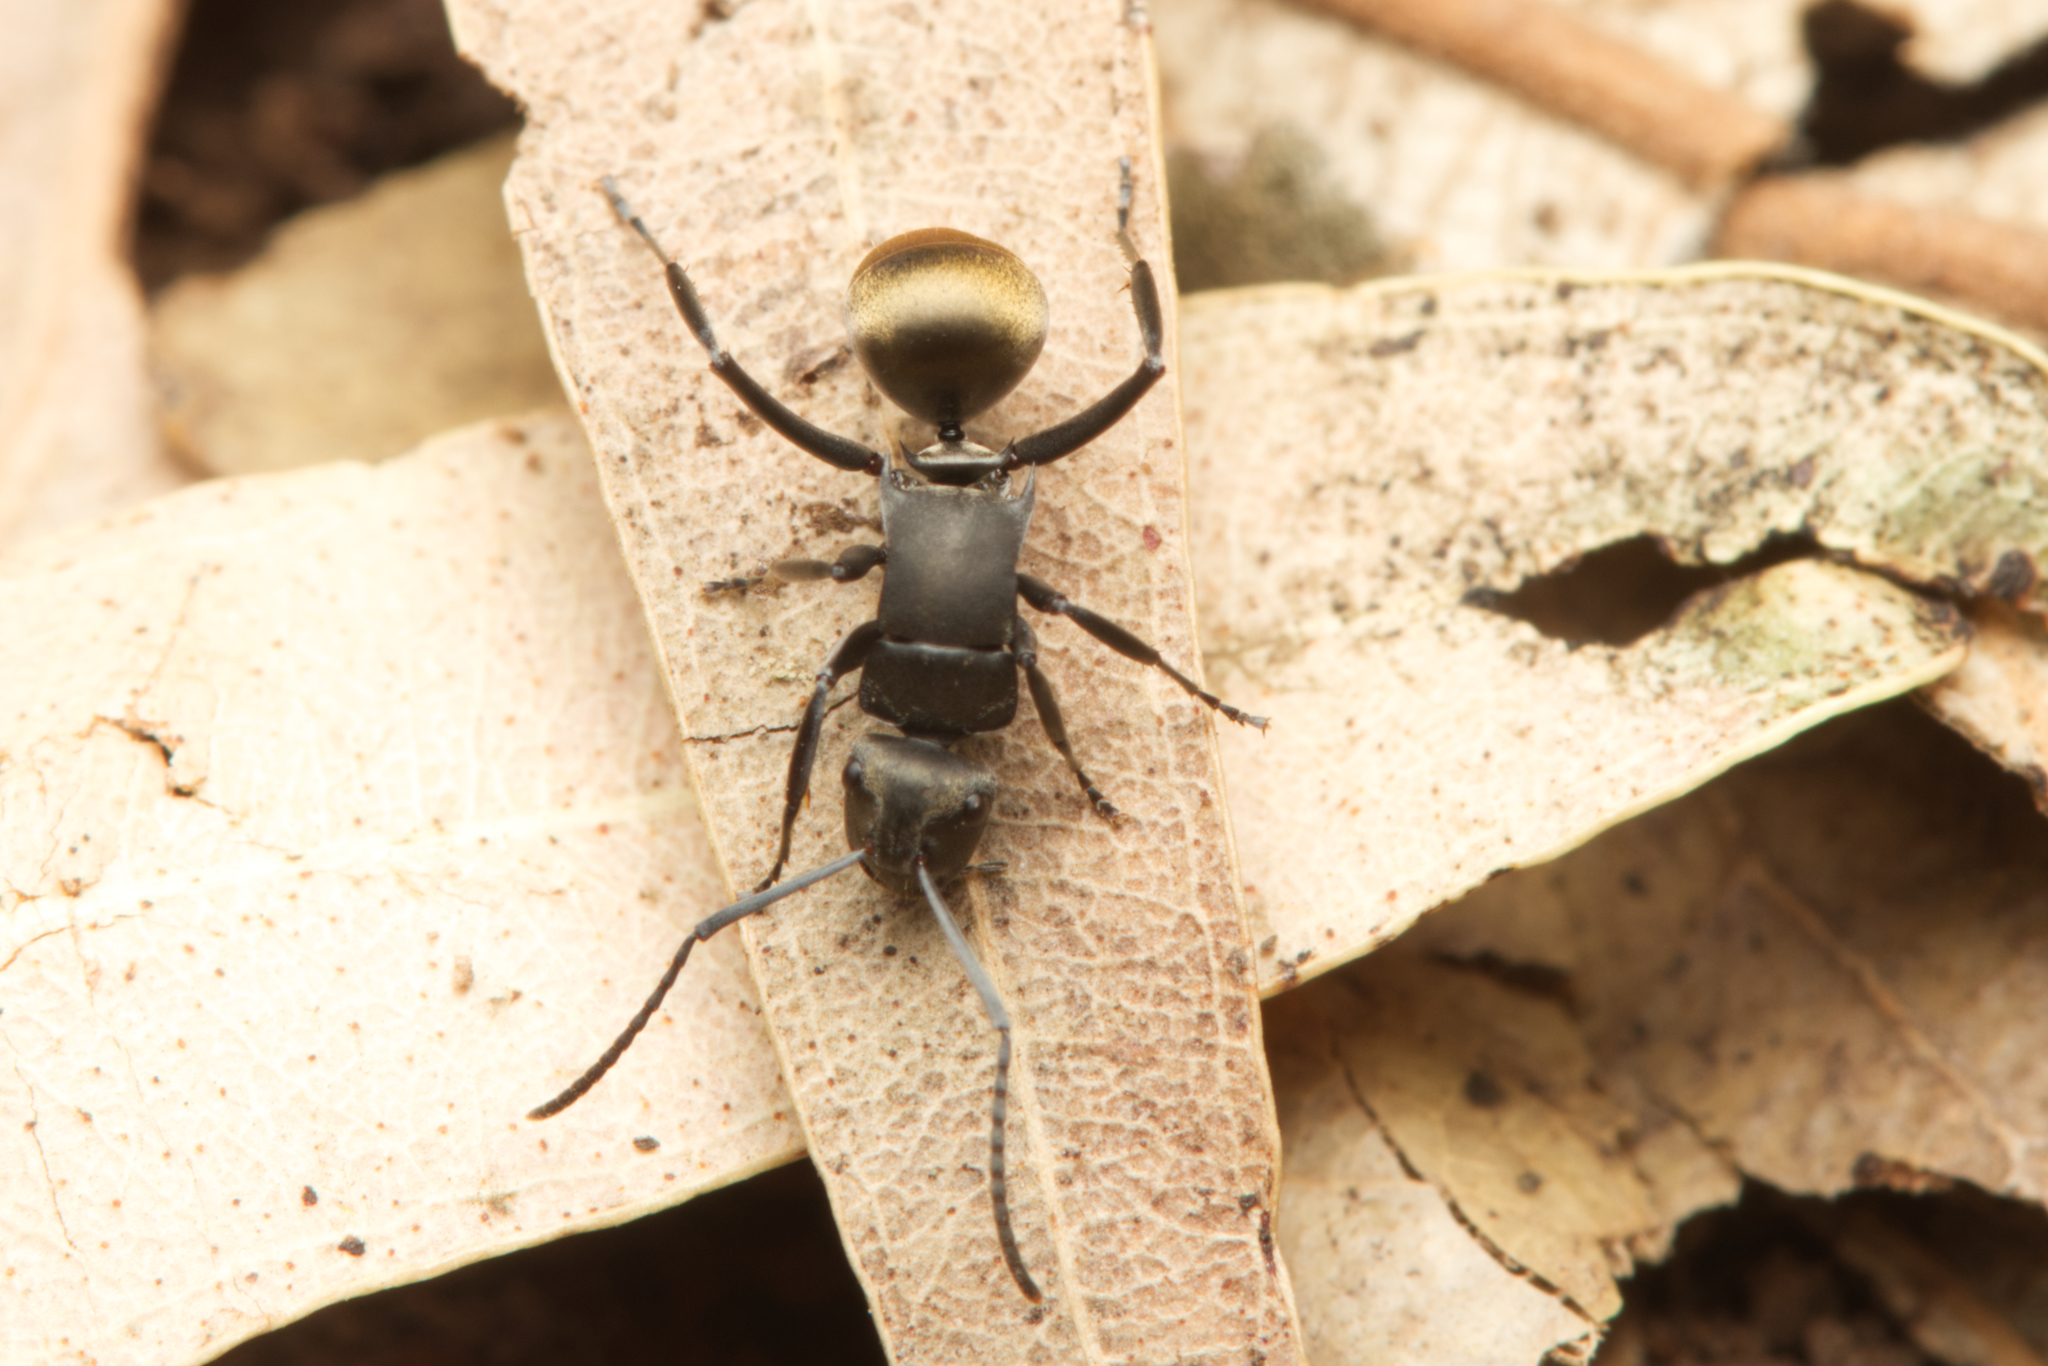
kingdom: Animalia
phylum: Arthropoda
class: Insecta
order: Hymenoptera
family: Formicidae
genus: Polyrhachis
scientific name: Polyrhachis tubifera
